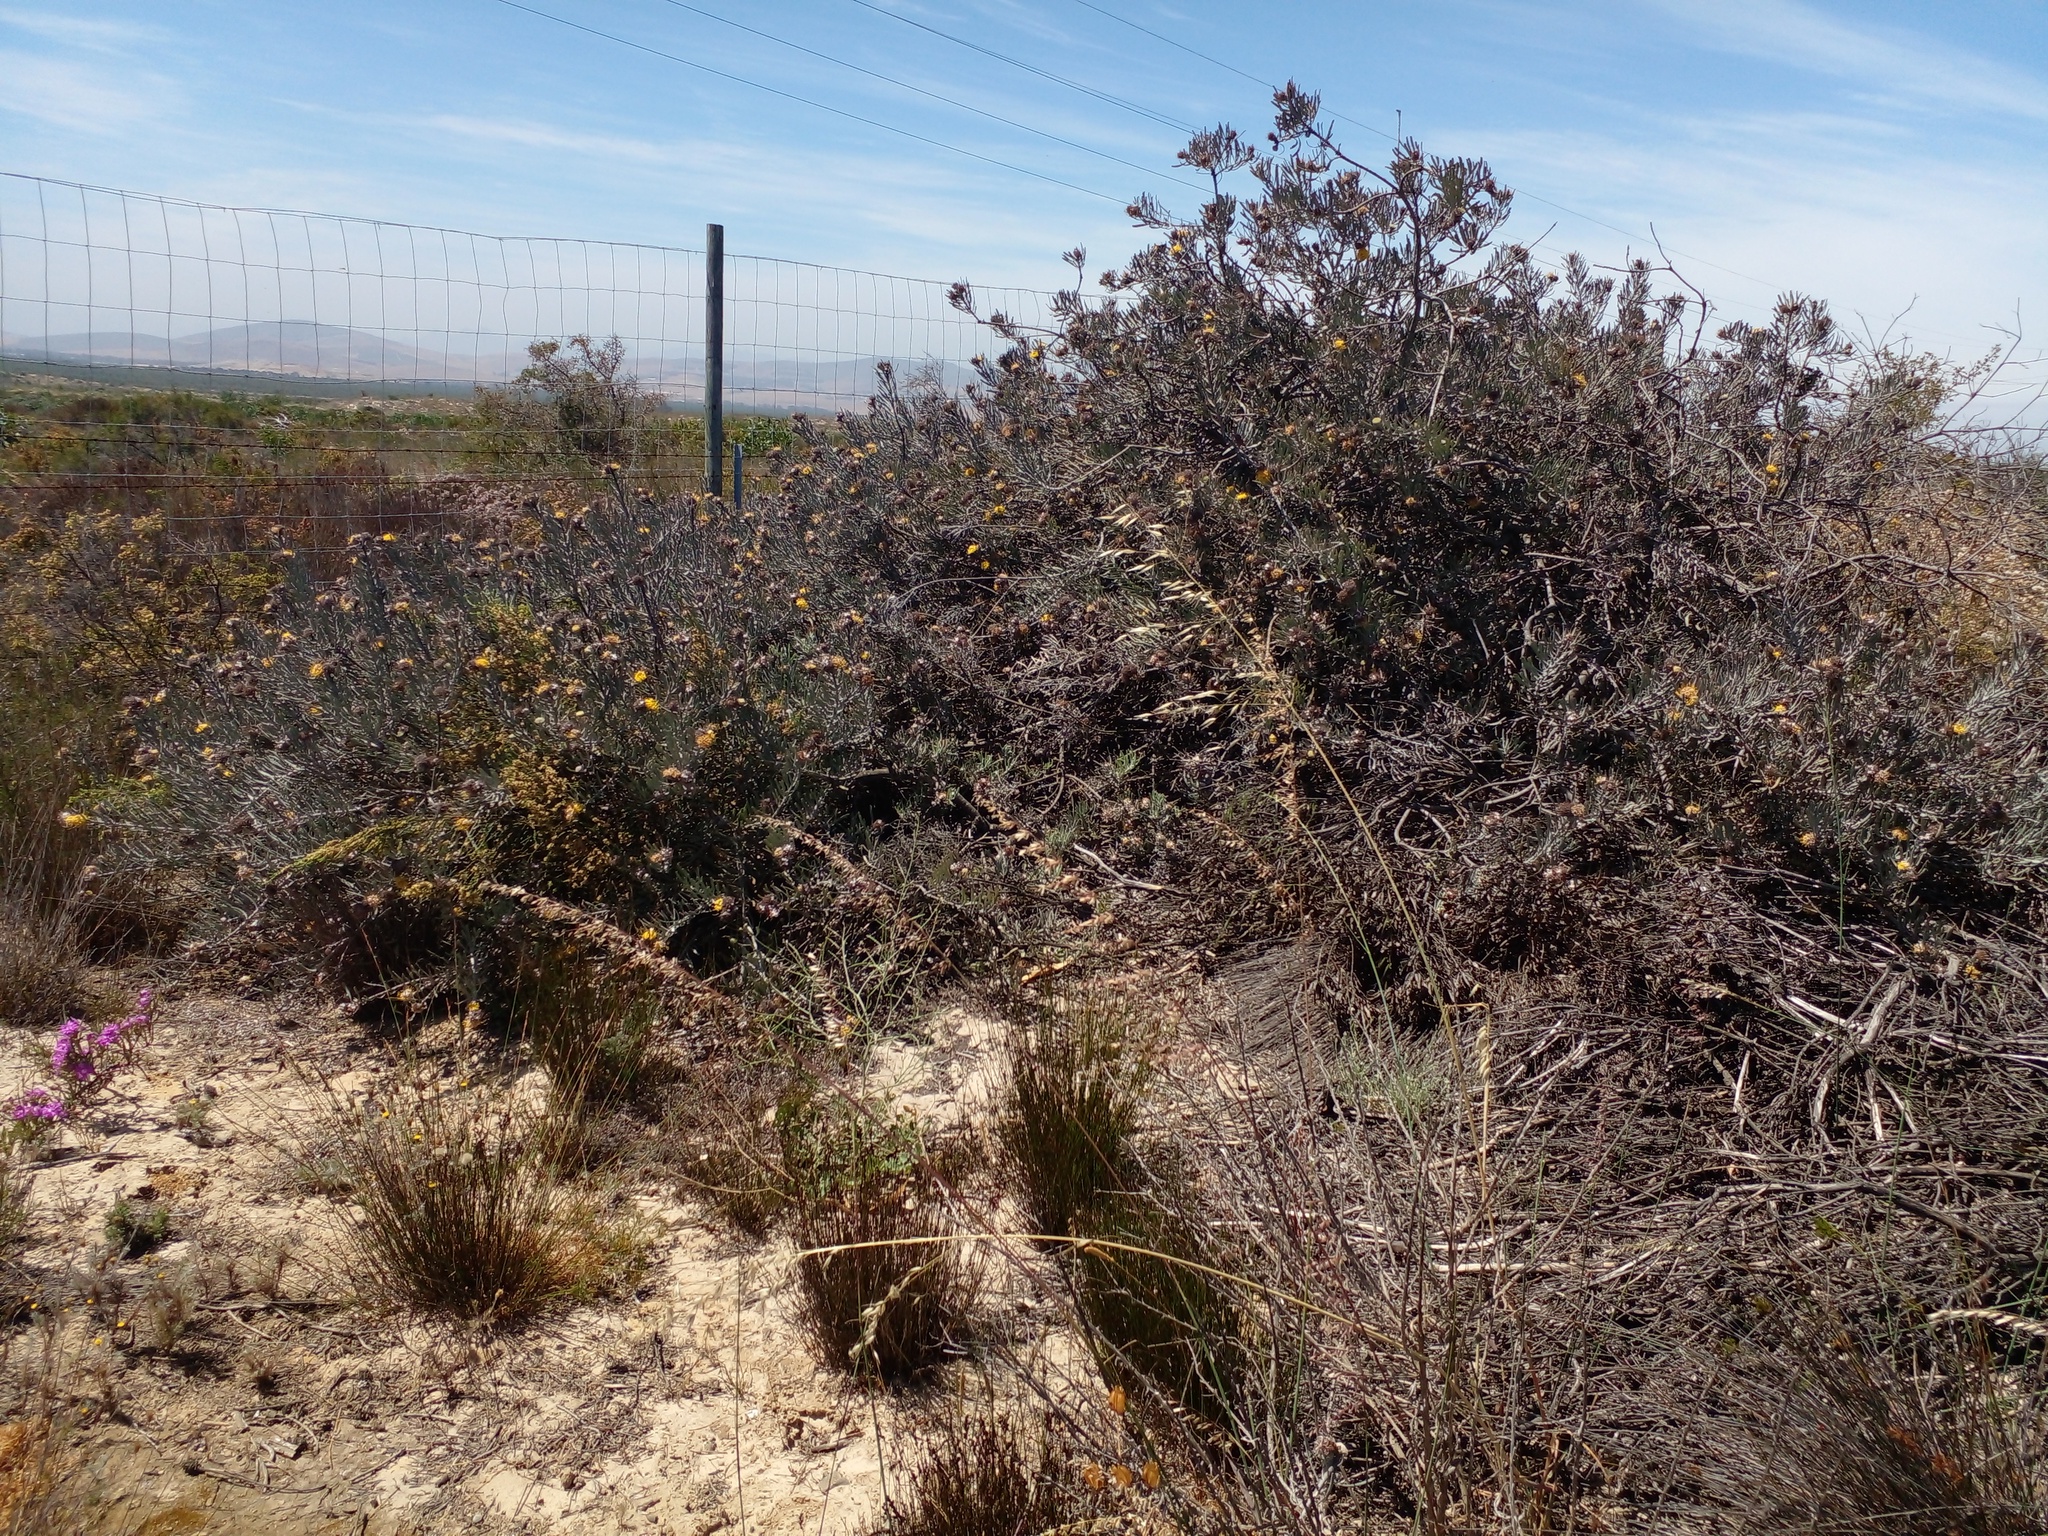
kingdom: Plantae
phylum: Tracheophyta
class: Magnoliopsida
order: Proteales
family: Proteaceae
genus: Leucospermum
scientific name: Leucospermum
